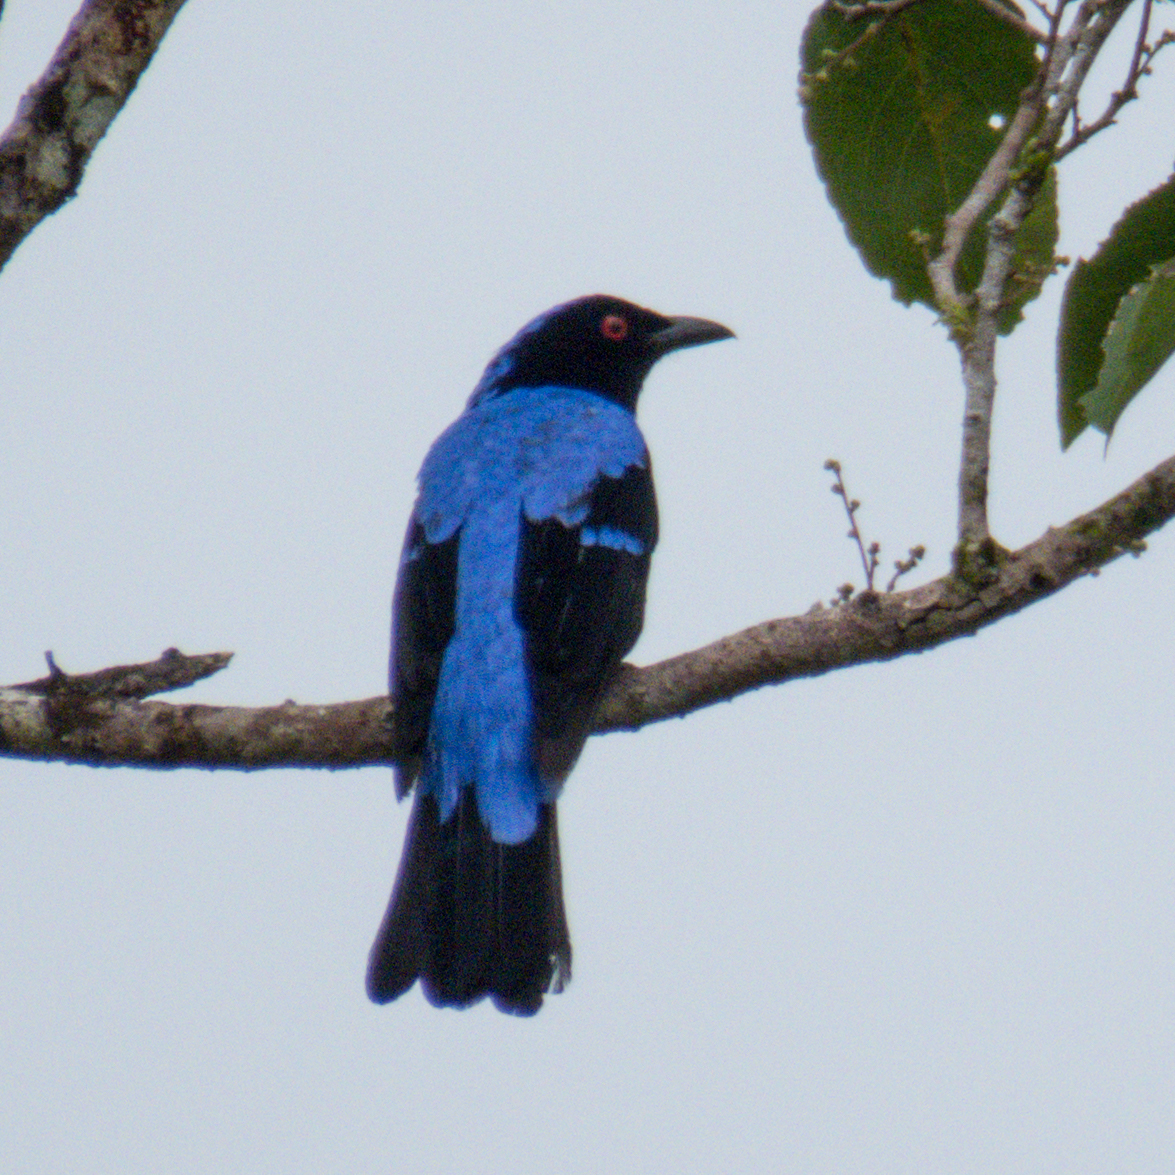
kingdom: Animalia
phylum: Chordata
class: Aves
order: Passeriformes
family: Irenidae
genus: Irena
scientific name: Irena puella
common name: Asian fairy-bluebird
